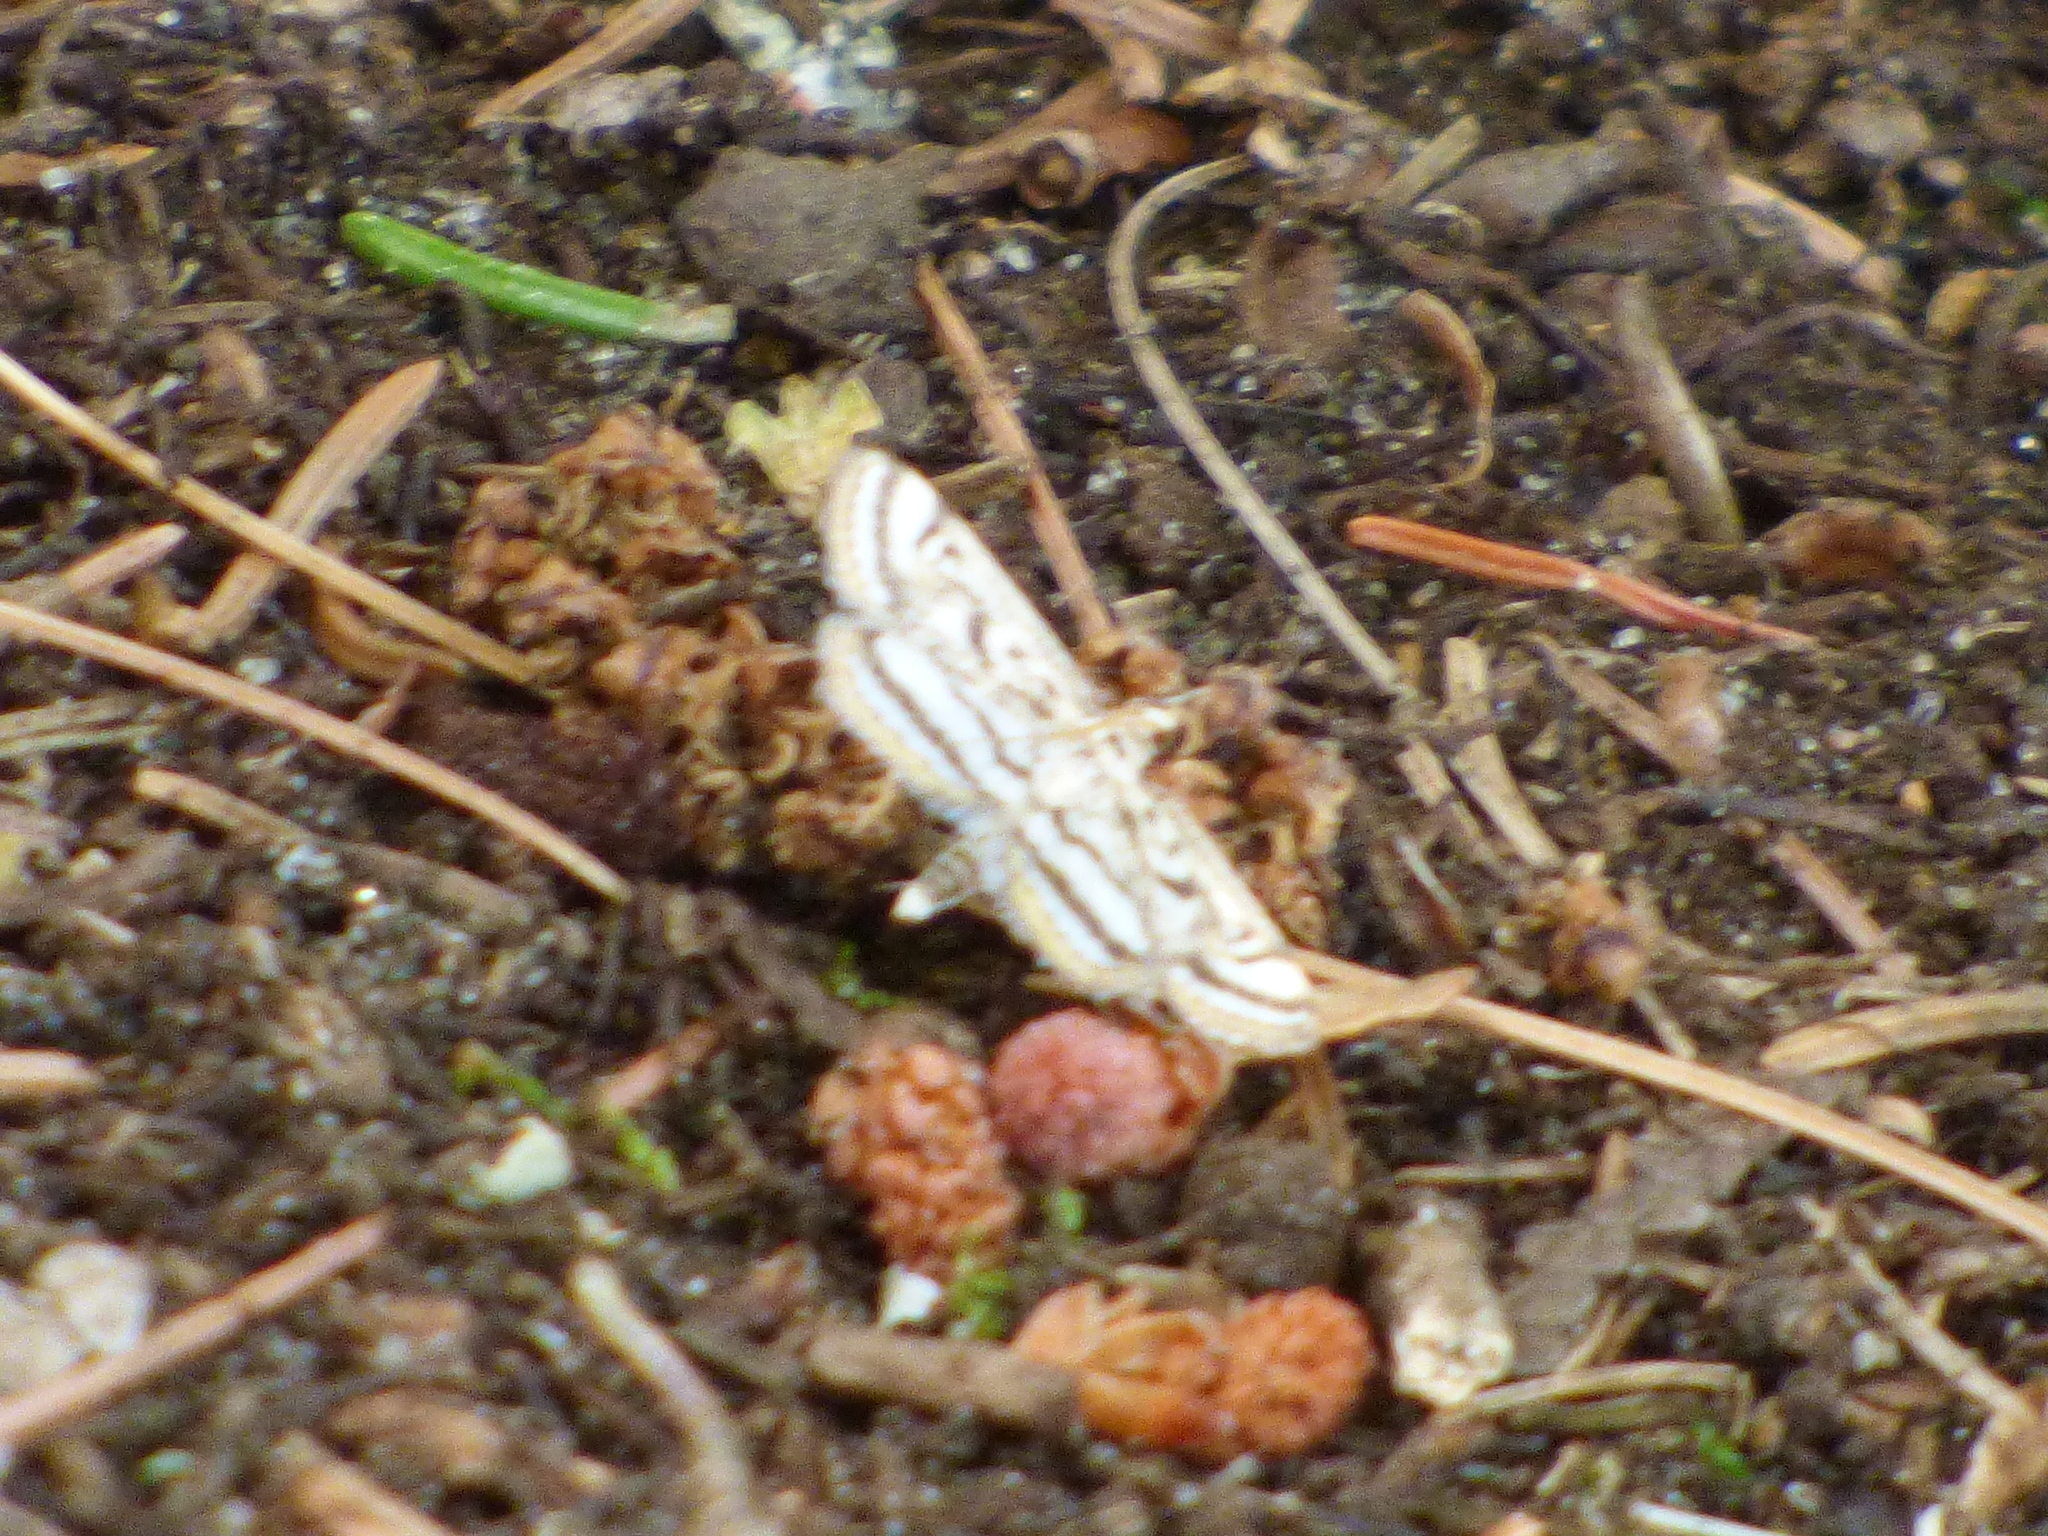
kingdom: Animalia
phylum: Arthropoda
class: Insecta
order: Lepidoptera
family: Crambidae
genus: Parapoynx
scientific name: Parapoynx badiusalis
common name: Chestnut-marked pondweed moth
